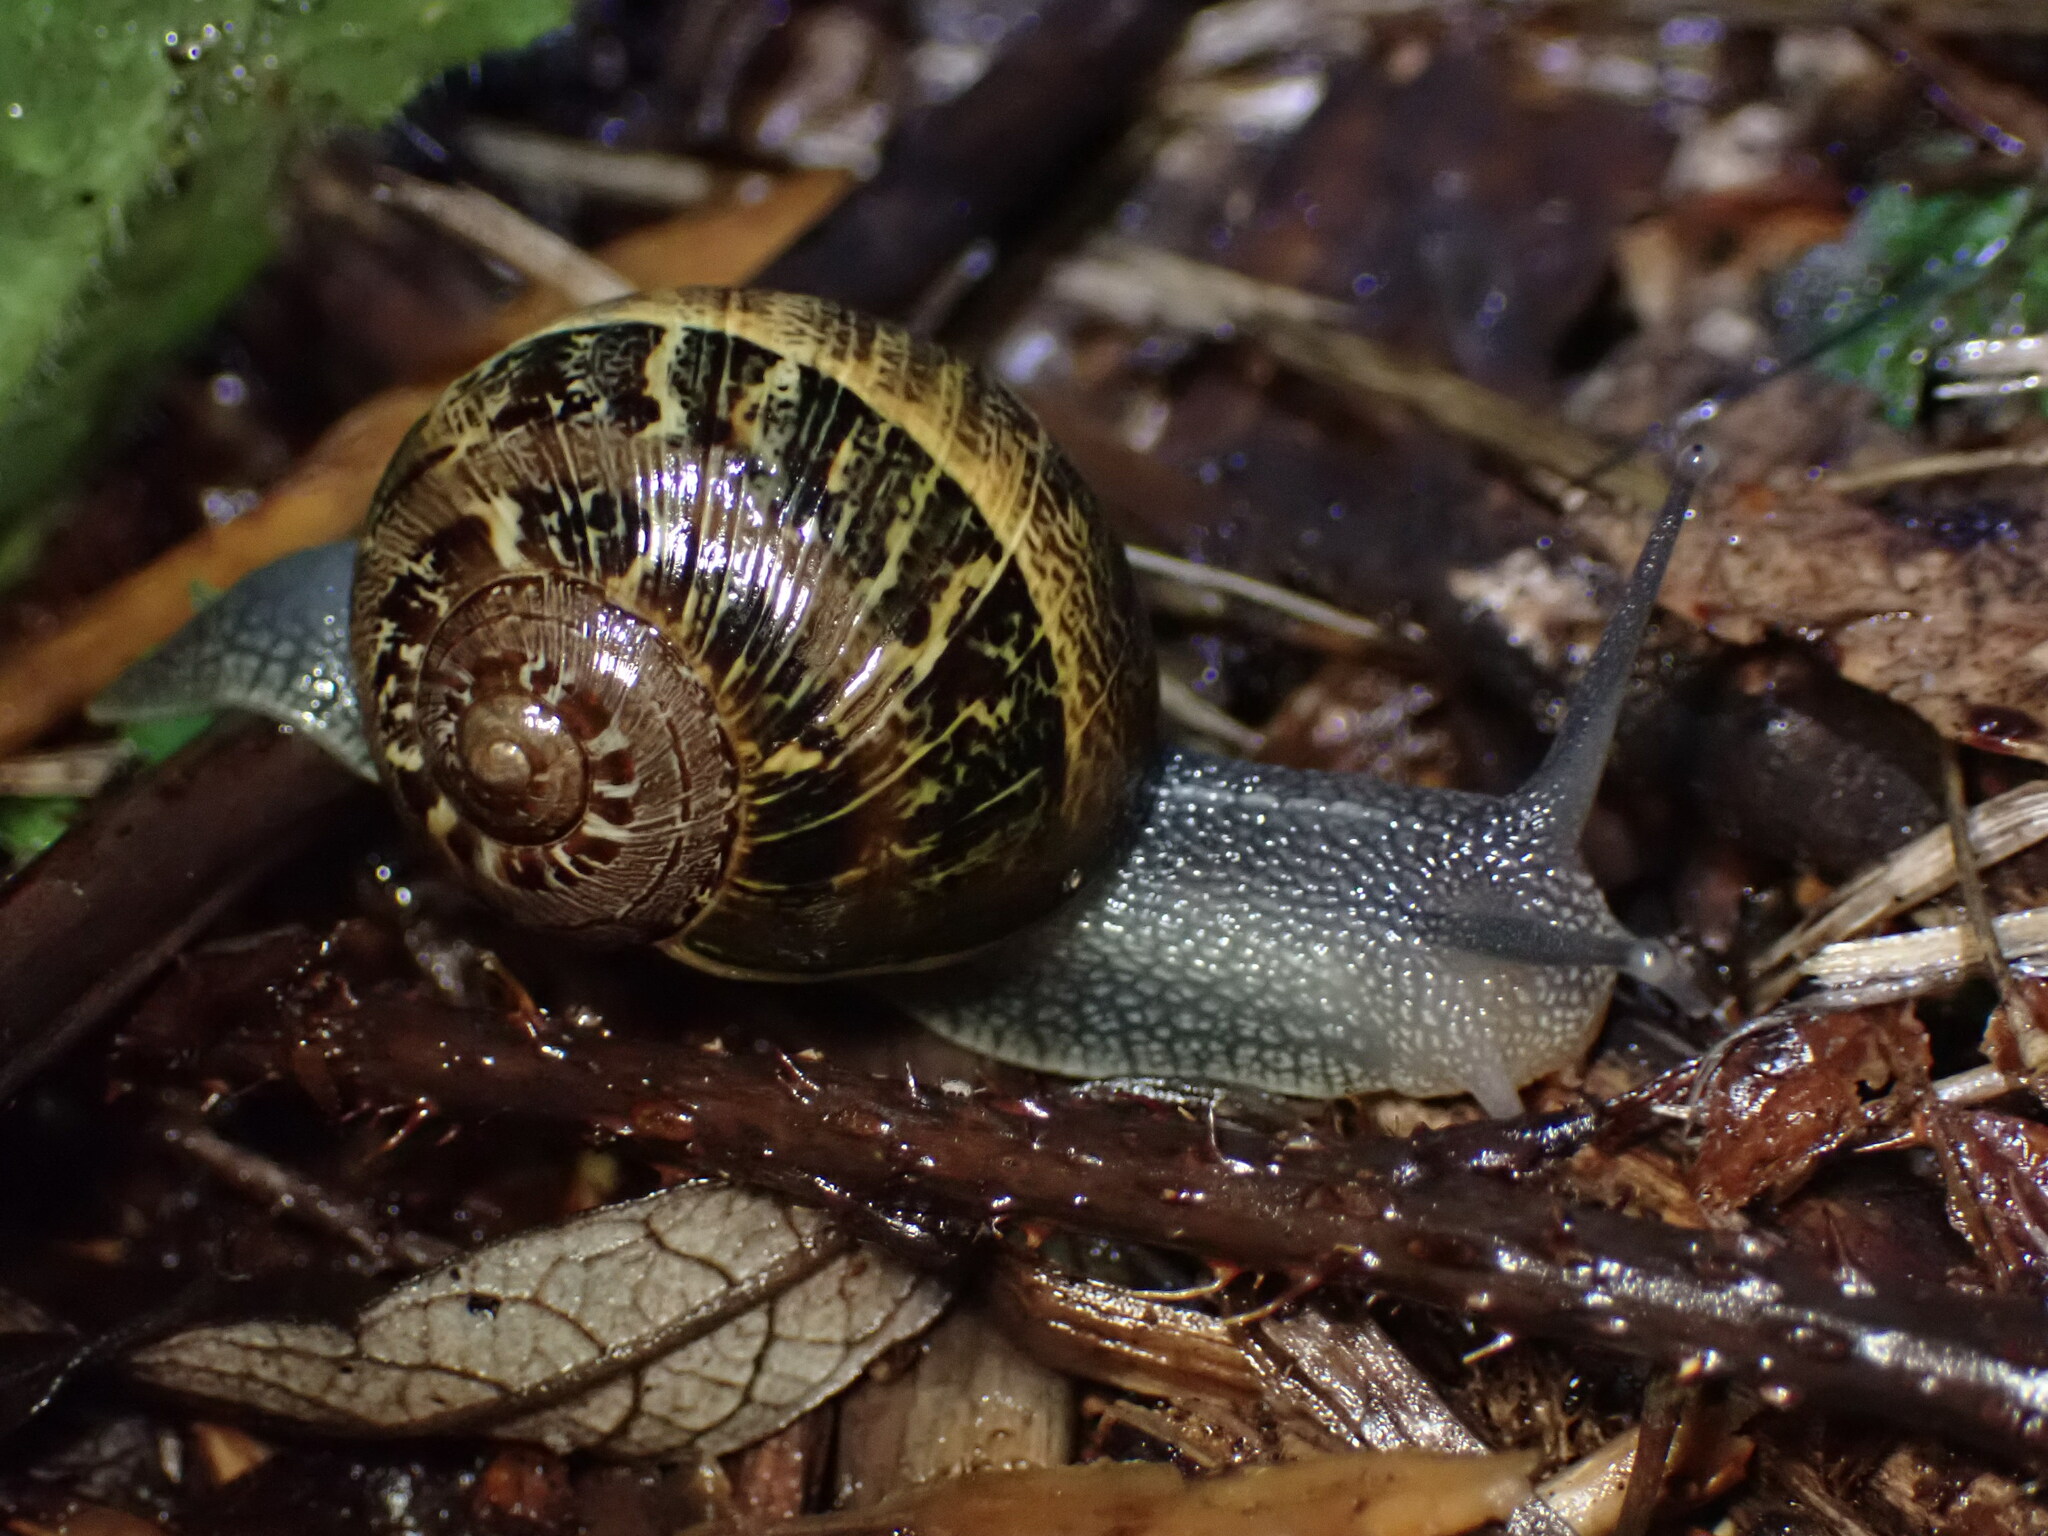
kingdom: Animalia
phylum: Mollusca
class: Gastropoda
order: Stylommatophora
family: Helicidae
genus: Cornu
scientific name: Cornu aspersum
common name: Brown garden snail
